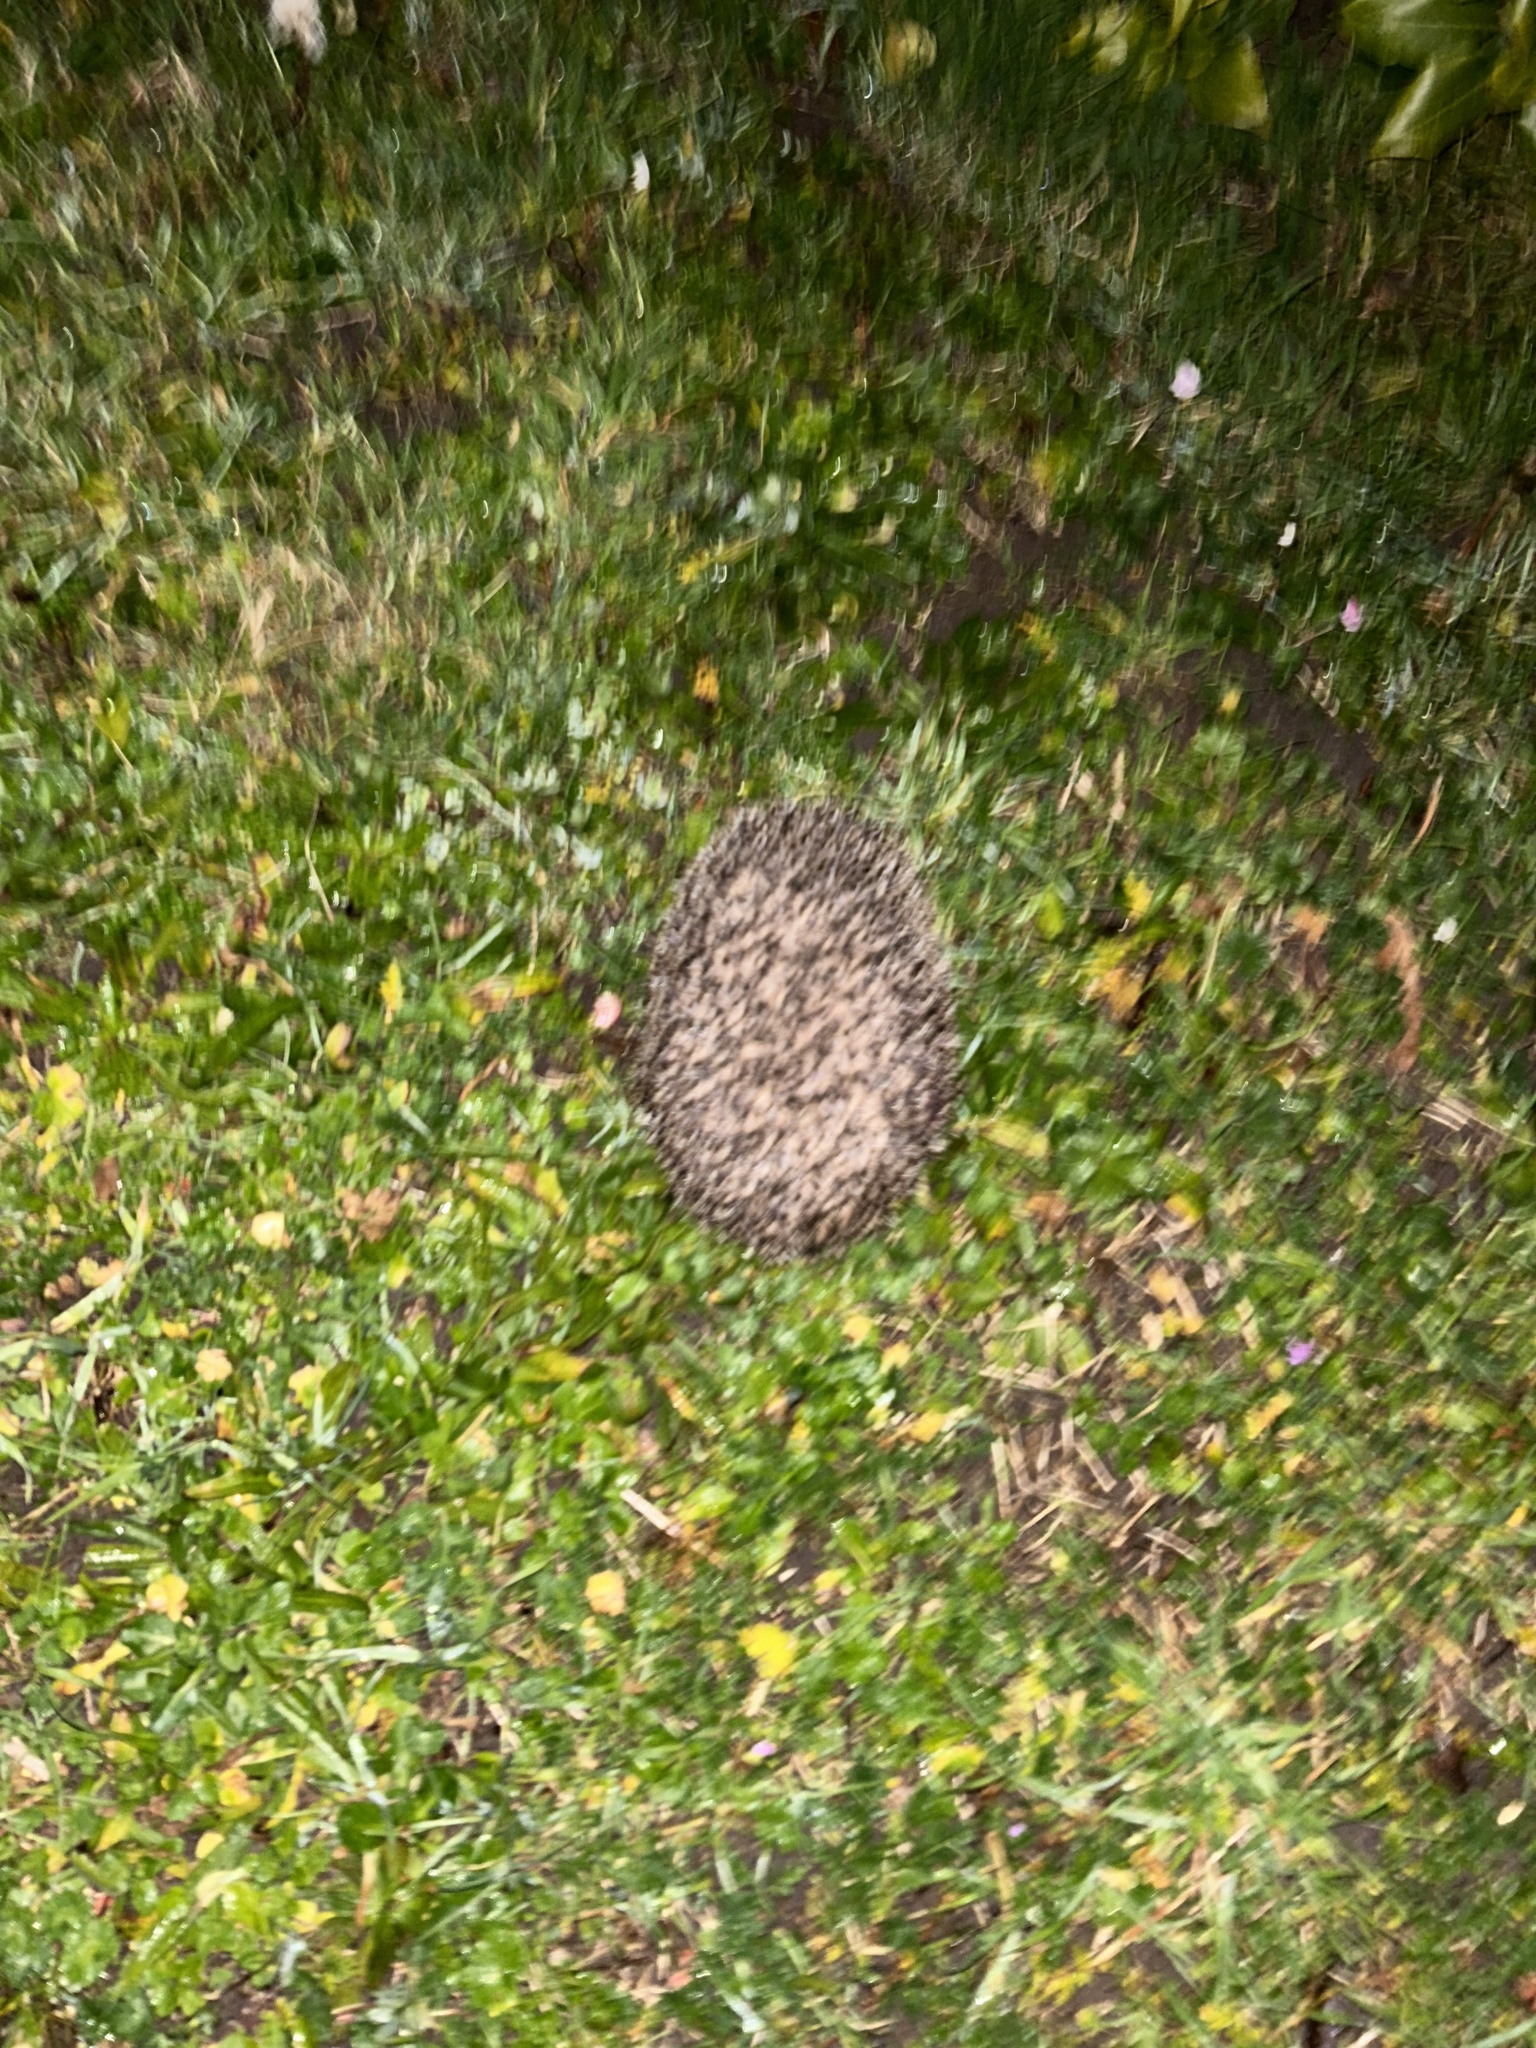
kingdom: Animalia
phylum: Chordata
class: Mammalia
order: Erinaceomorpha
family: Erinaceidae
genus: Erinaceus
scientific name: Erinaceus europaeus
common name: West european hedgehog
